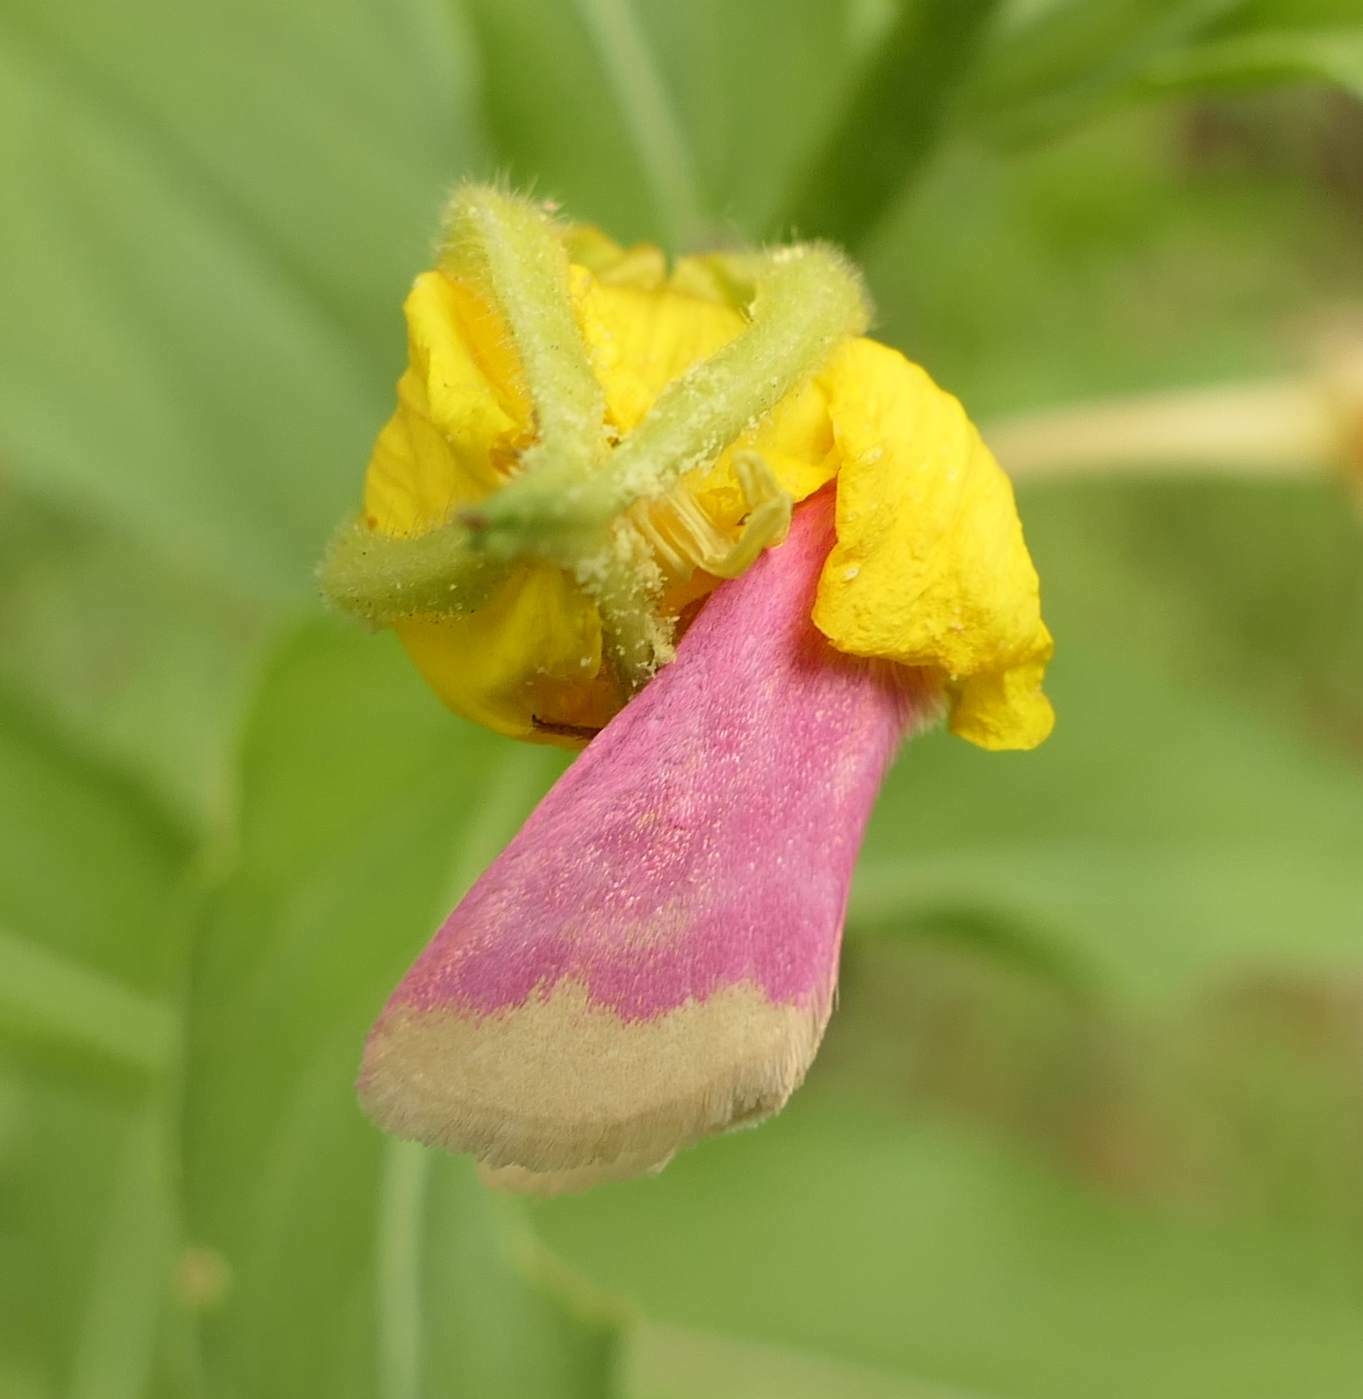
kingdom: Animalia
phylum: Arthropoda
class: Insecta
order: Lepidoptera
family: Noctuidae
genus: Schinia
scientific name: Schinia florida
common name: Primrose moth
